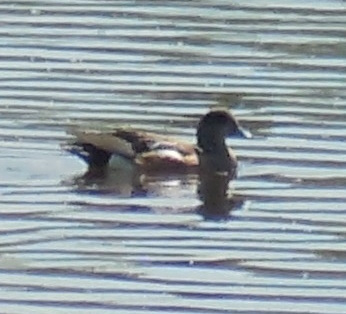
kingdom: Animalia
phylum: Chordata
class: Aves
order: Anseriformes
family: Anatidae
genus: Mareca
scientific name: Mareca americana
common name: American wigeon
